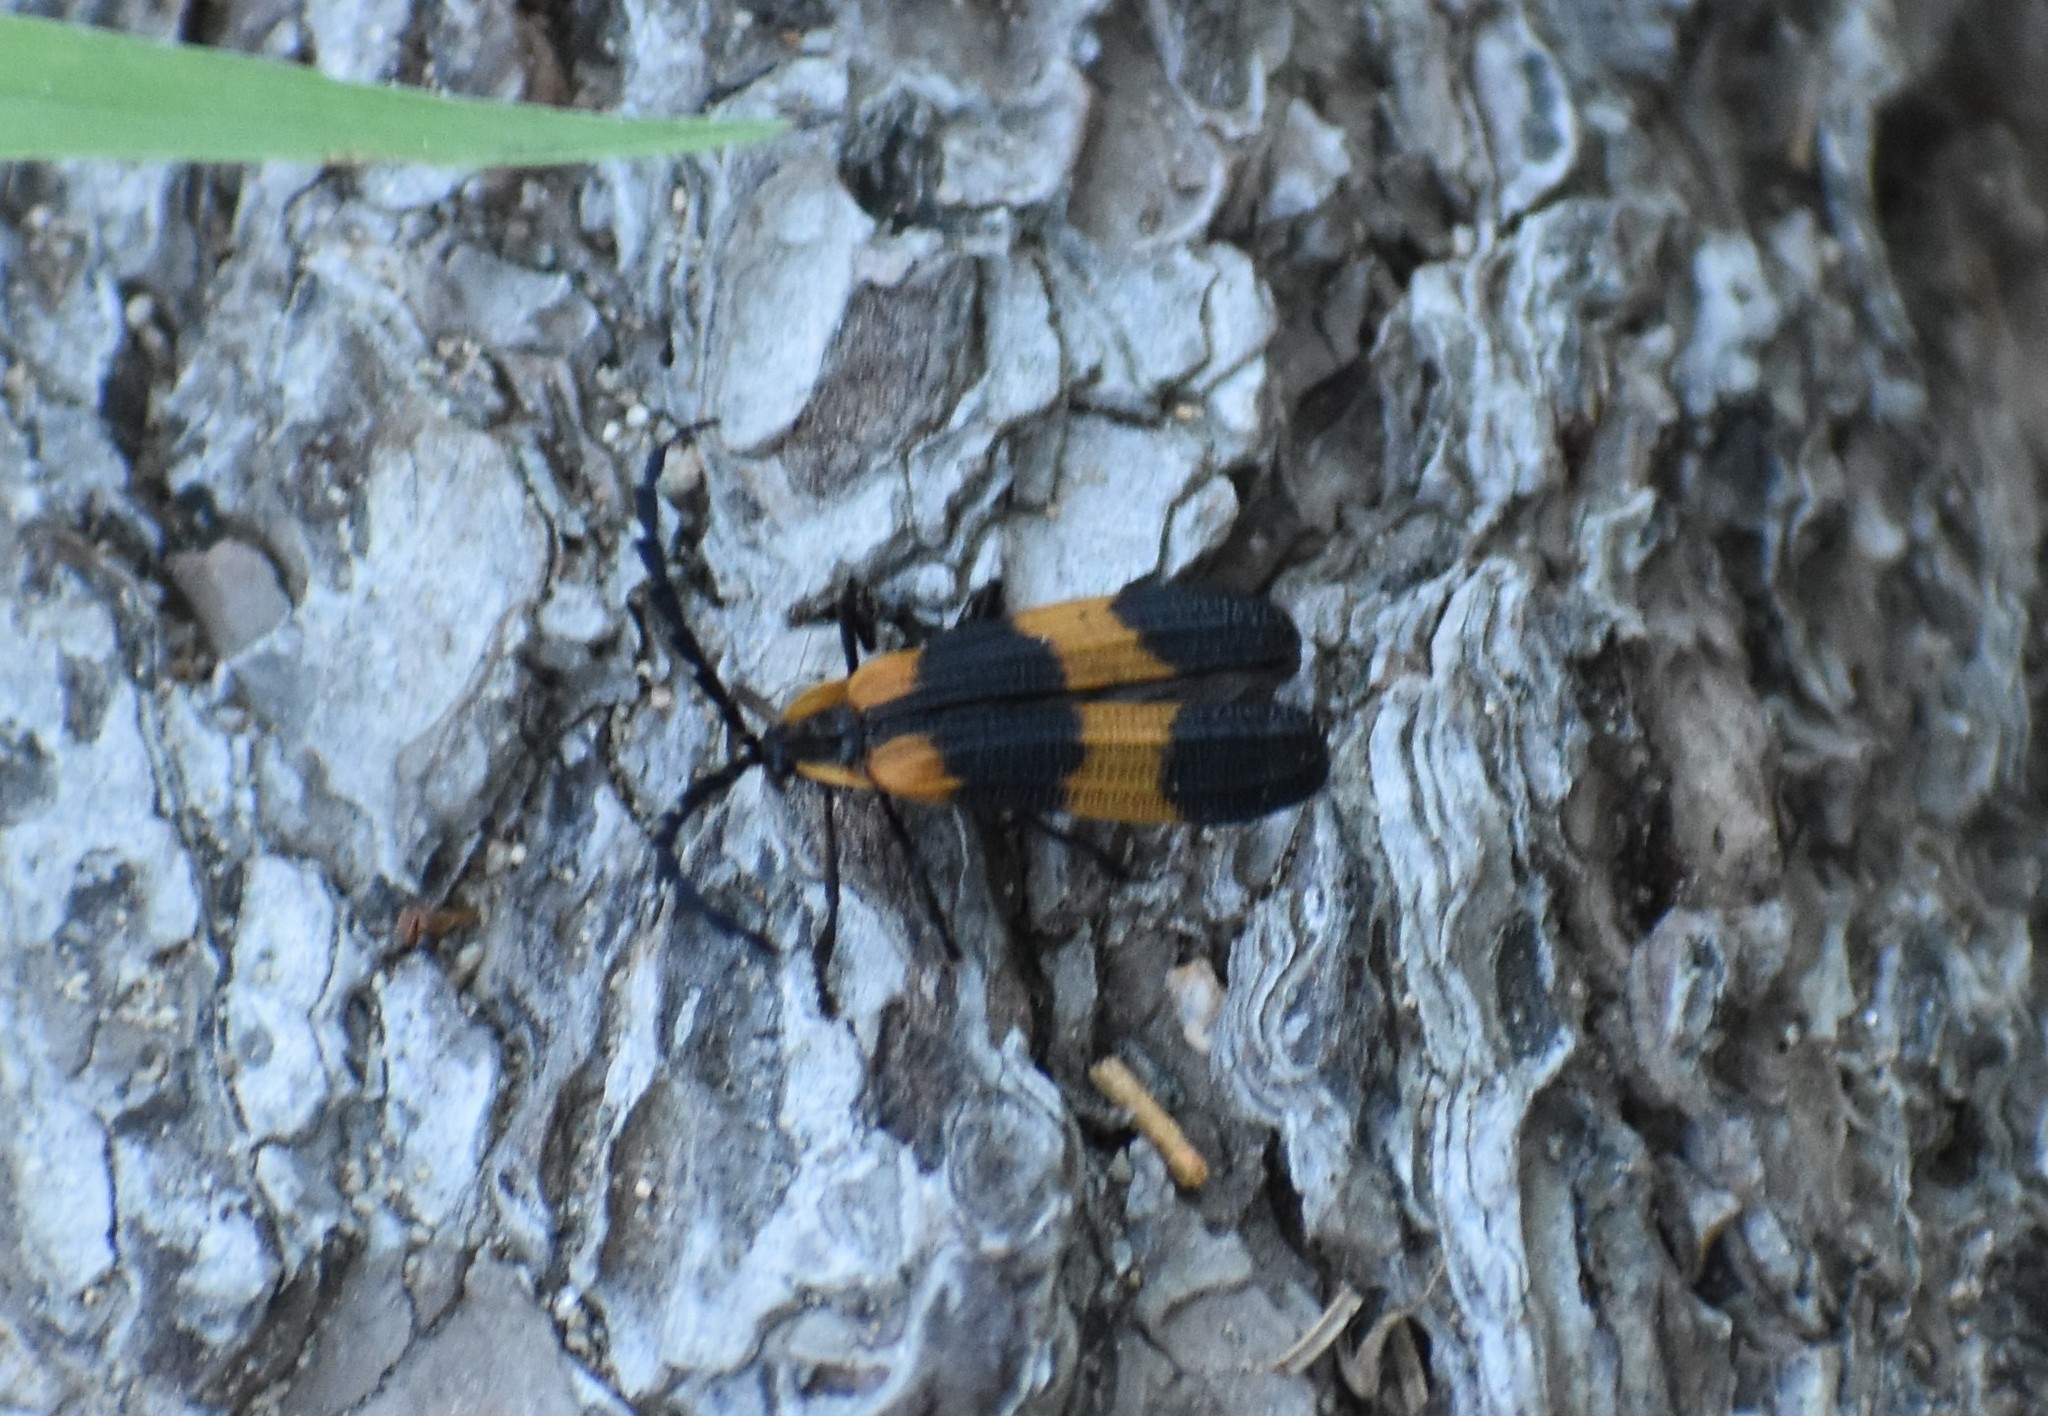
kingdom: Animalia
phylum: Arthropoda
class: Insecta
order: Coleoptera
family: Lycidae
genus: Calopteron
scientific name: Calopteron reticulatum
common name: Banded net-winged beetle
